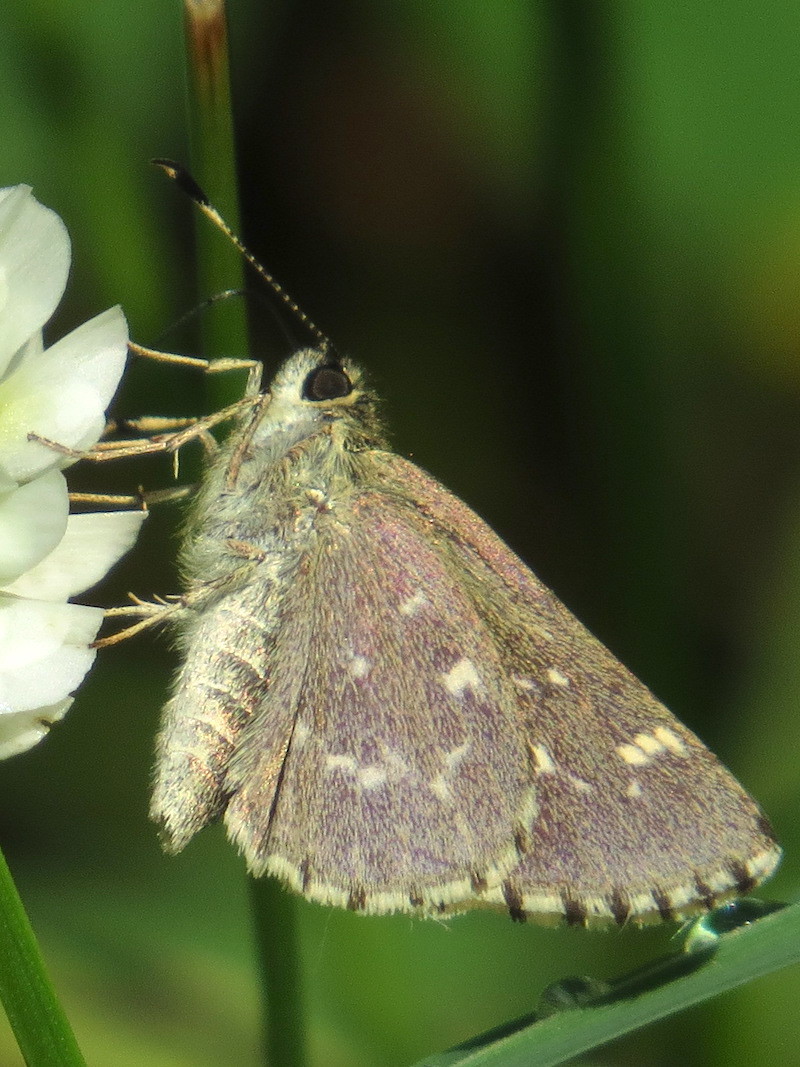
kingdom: Animalia
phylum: Arthropoda
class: Insecta
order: Lepidoptera
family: Hesperiidae
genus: Mastor
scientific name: Mastor hegon
